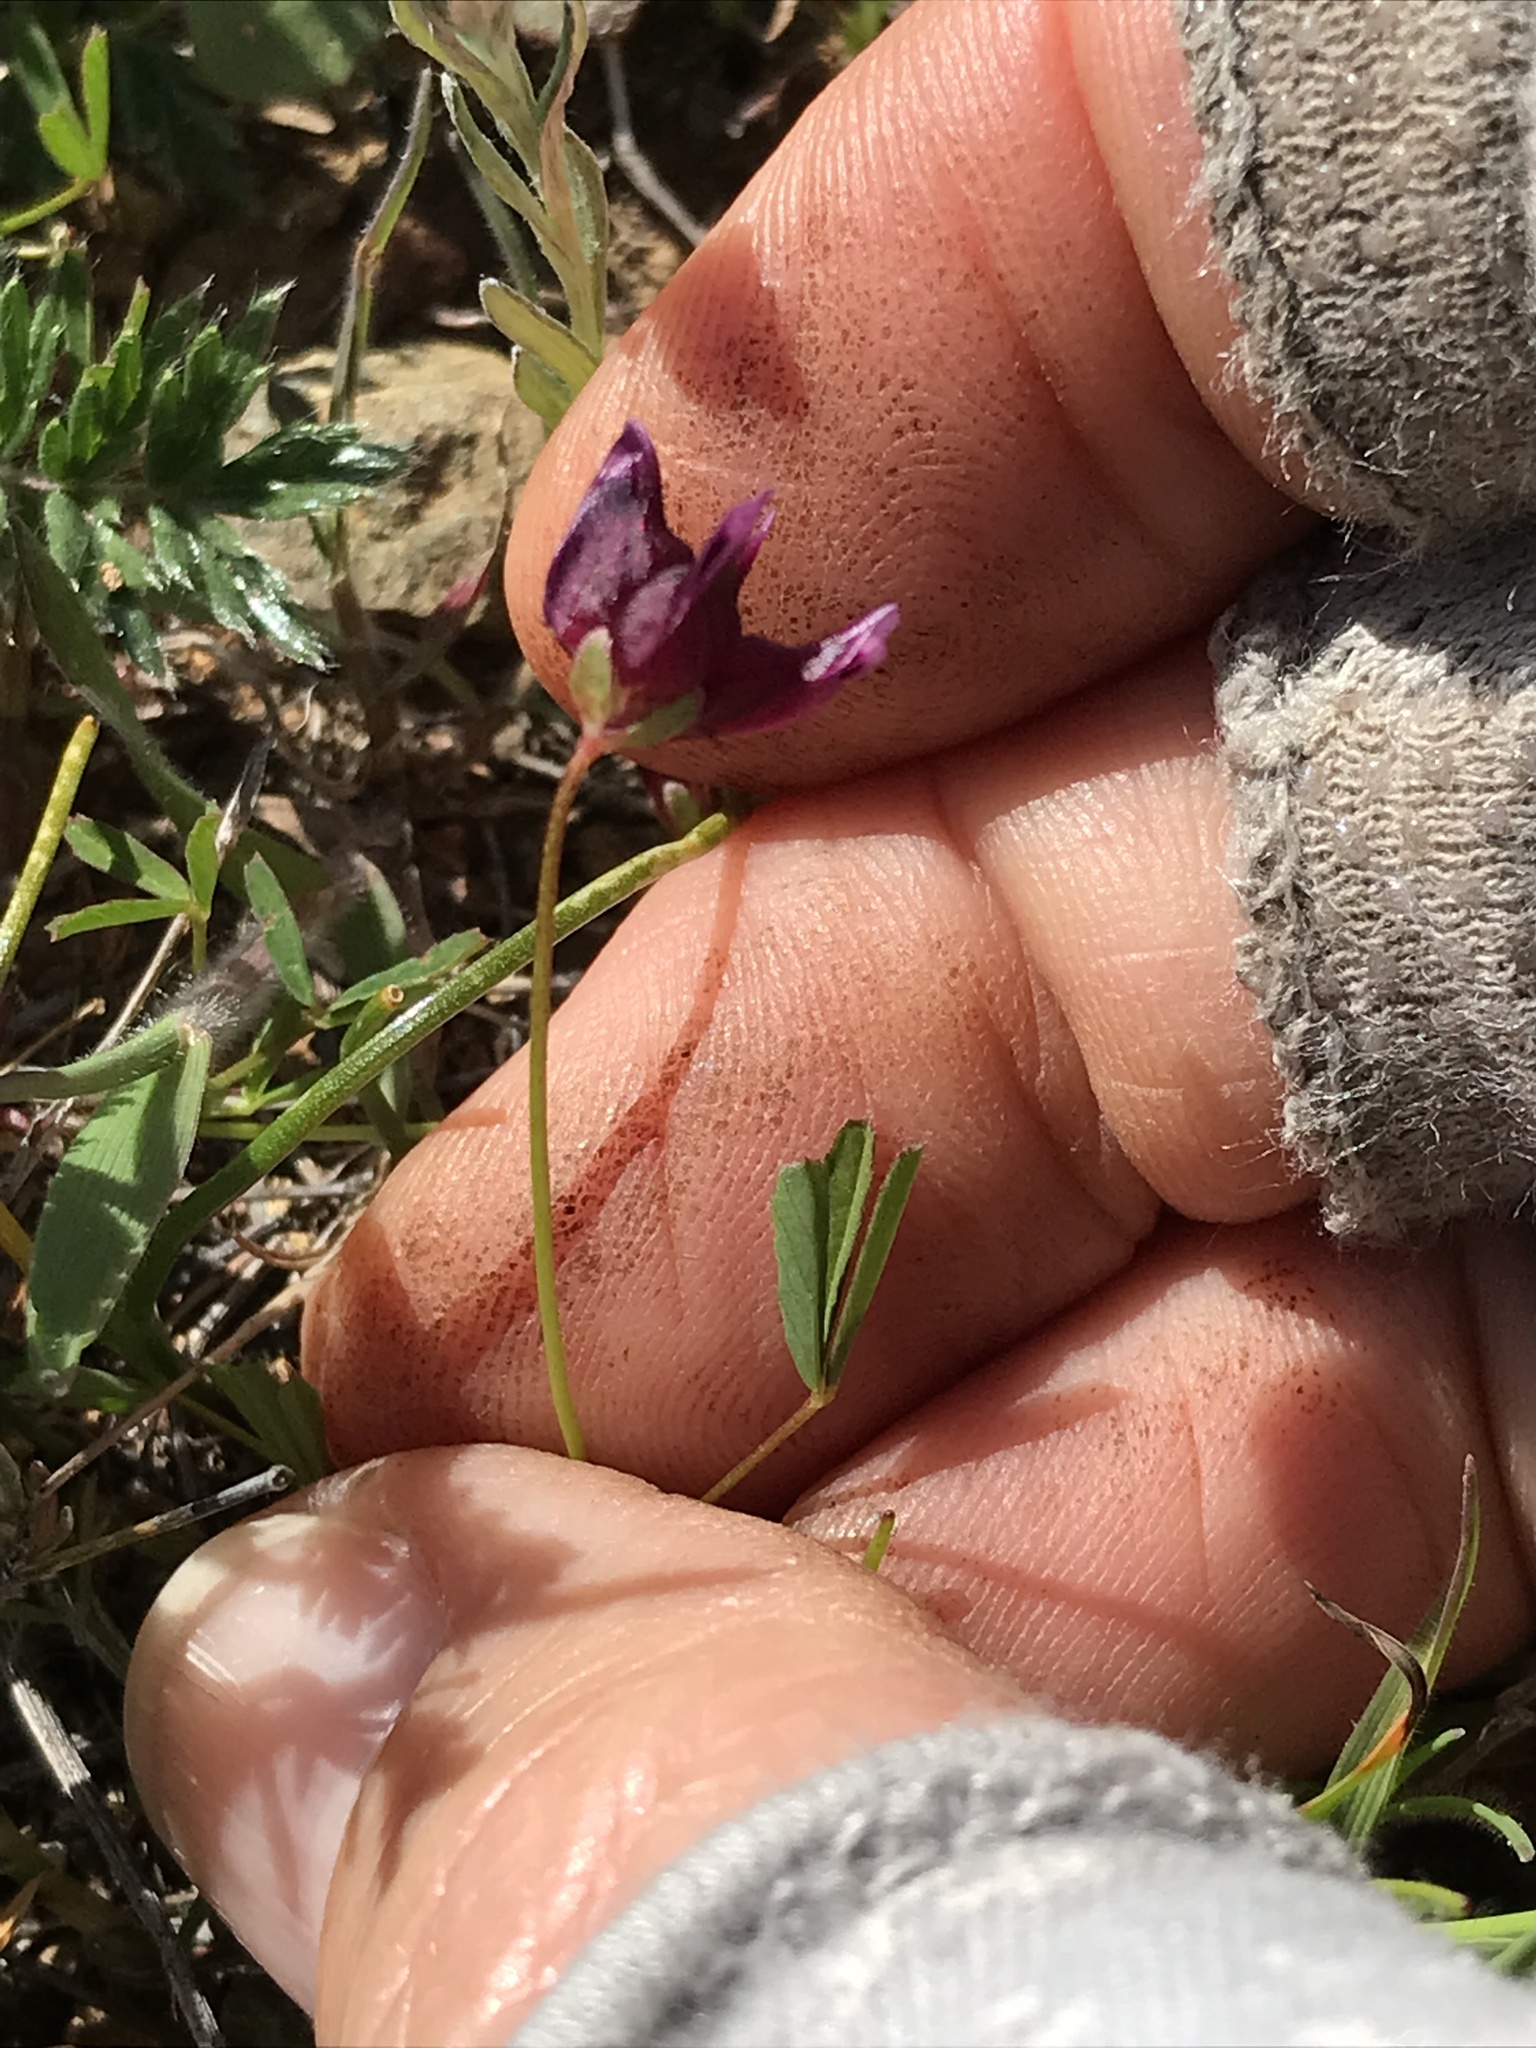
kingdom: Plantae
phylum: Tracheophyta
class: Magnoliopsida
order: Fabales
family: Fabaceae
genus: Trifolium
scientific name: Trifolium depauperatum
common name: Poverty clover
